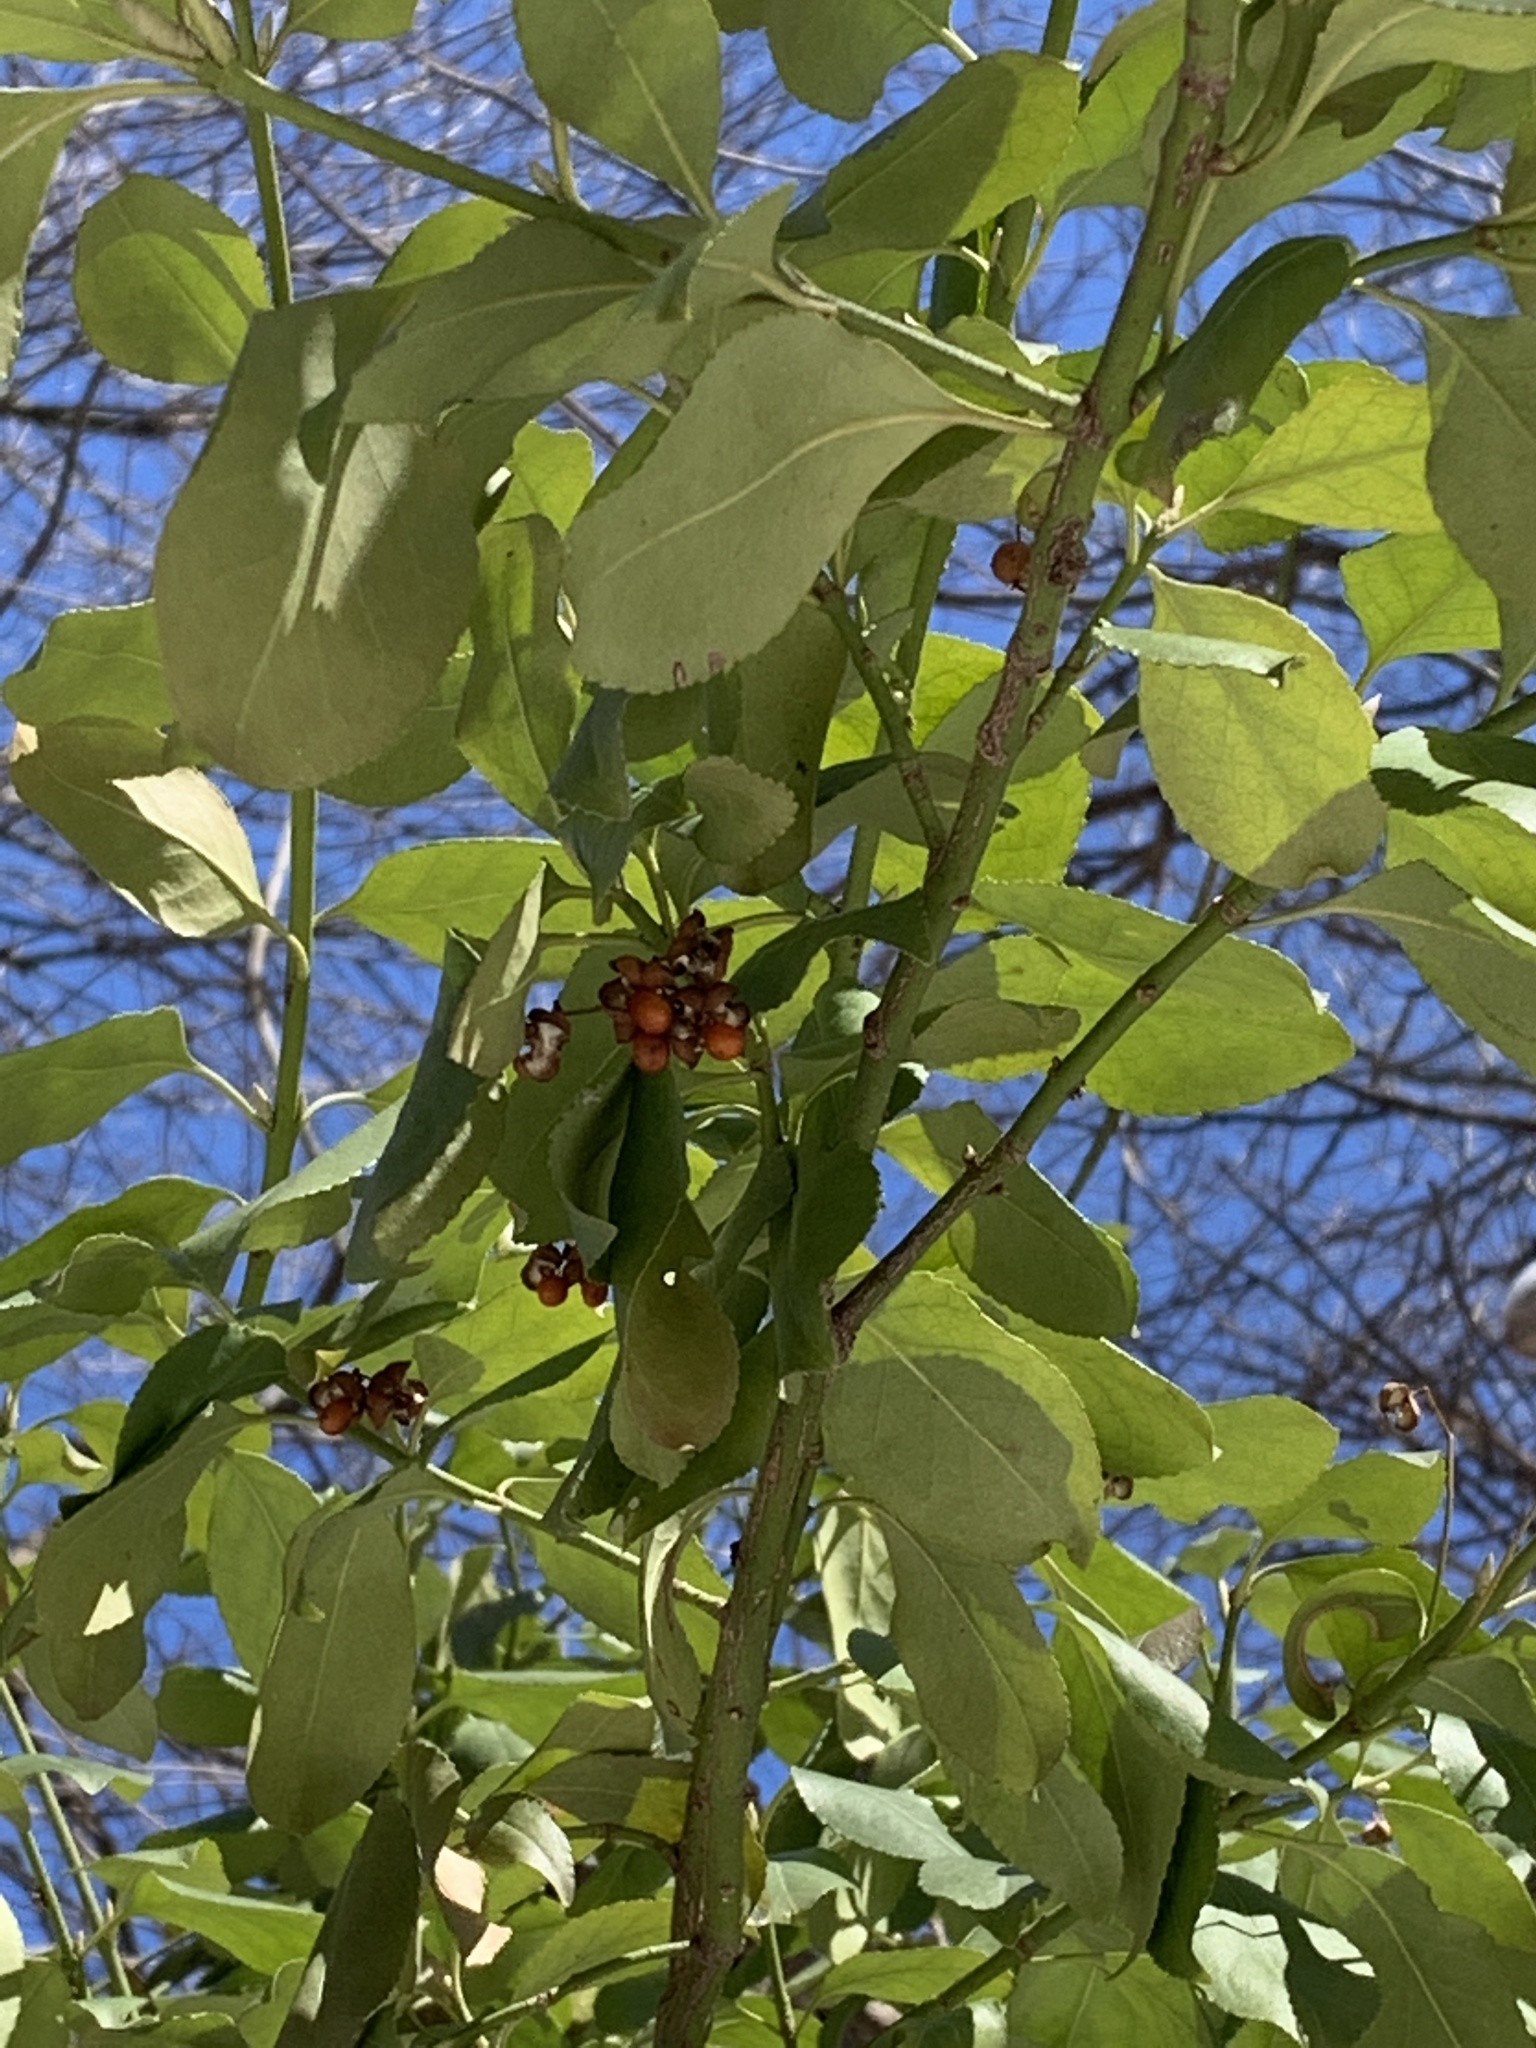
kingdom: Plantae
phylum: Tracheophyta
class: Magnoliopsida
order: Celastrales
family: Celastraceae
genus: Euonymus
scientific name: Euonymus fortunei
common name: Climbing euonymus
